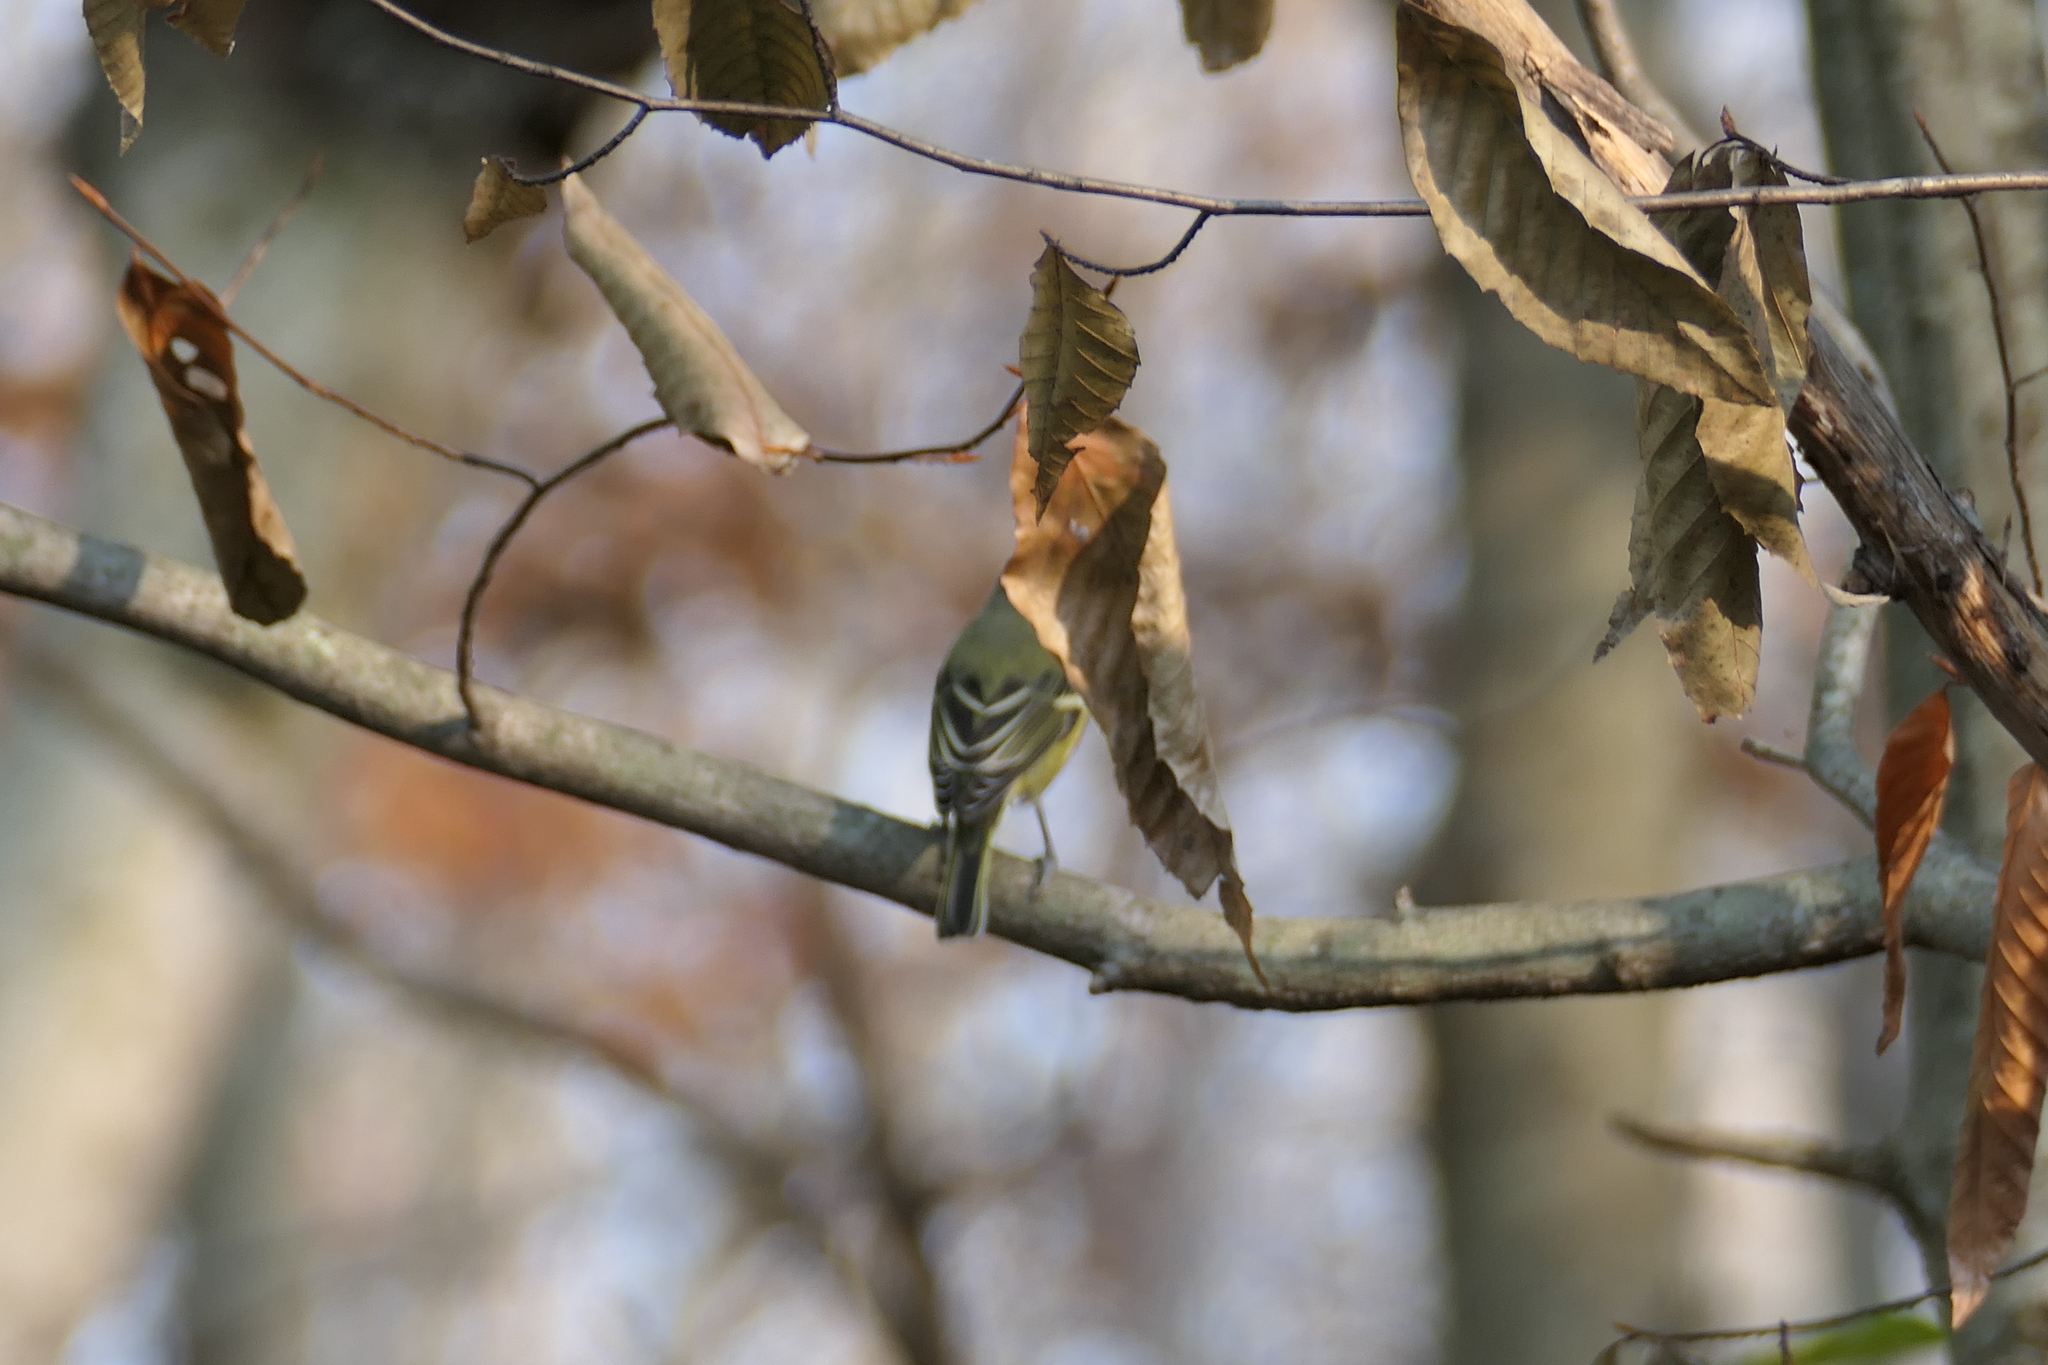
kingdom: Animalia
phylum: Chordata
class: Aves
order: Passeriformes
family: Regulidae
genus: Regulus
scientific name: Regulus calendula
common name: Ruby-crowned kinglet
